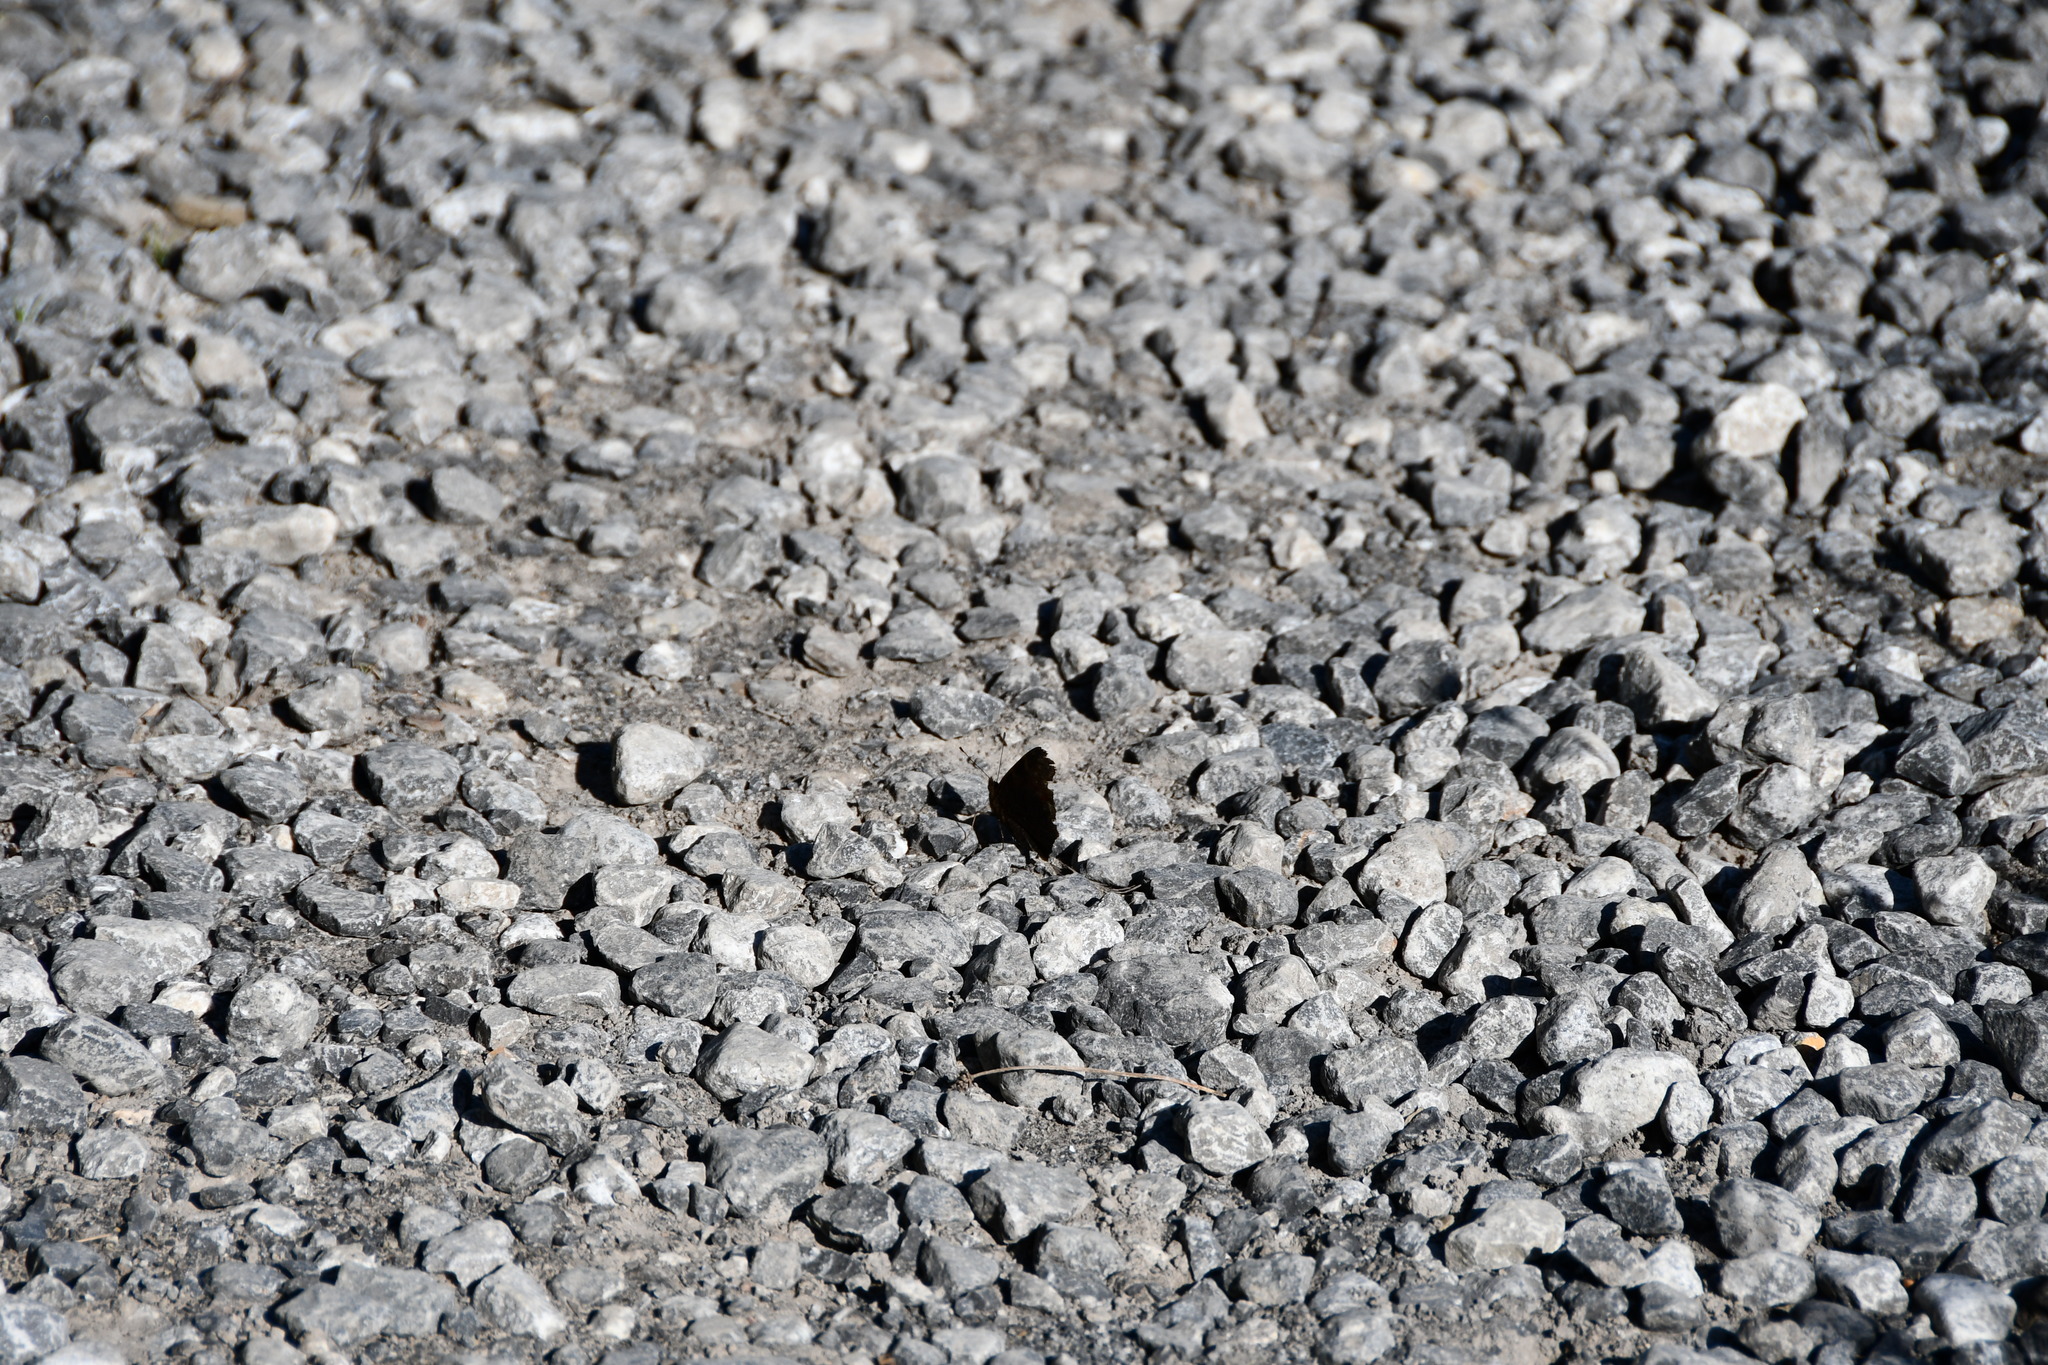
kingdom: Animalia
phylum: Arthropoda
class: Insecta
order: Lepidoptera
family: Nymphalidae
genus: Aglais
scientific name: Aglais io
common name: Peacock
